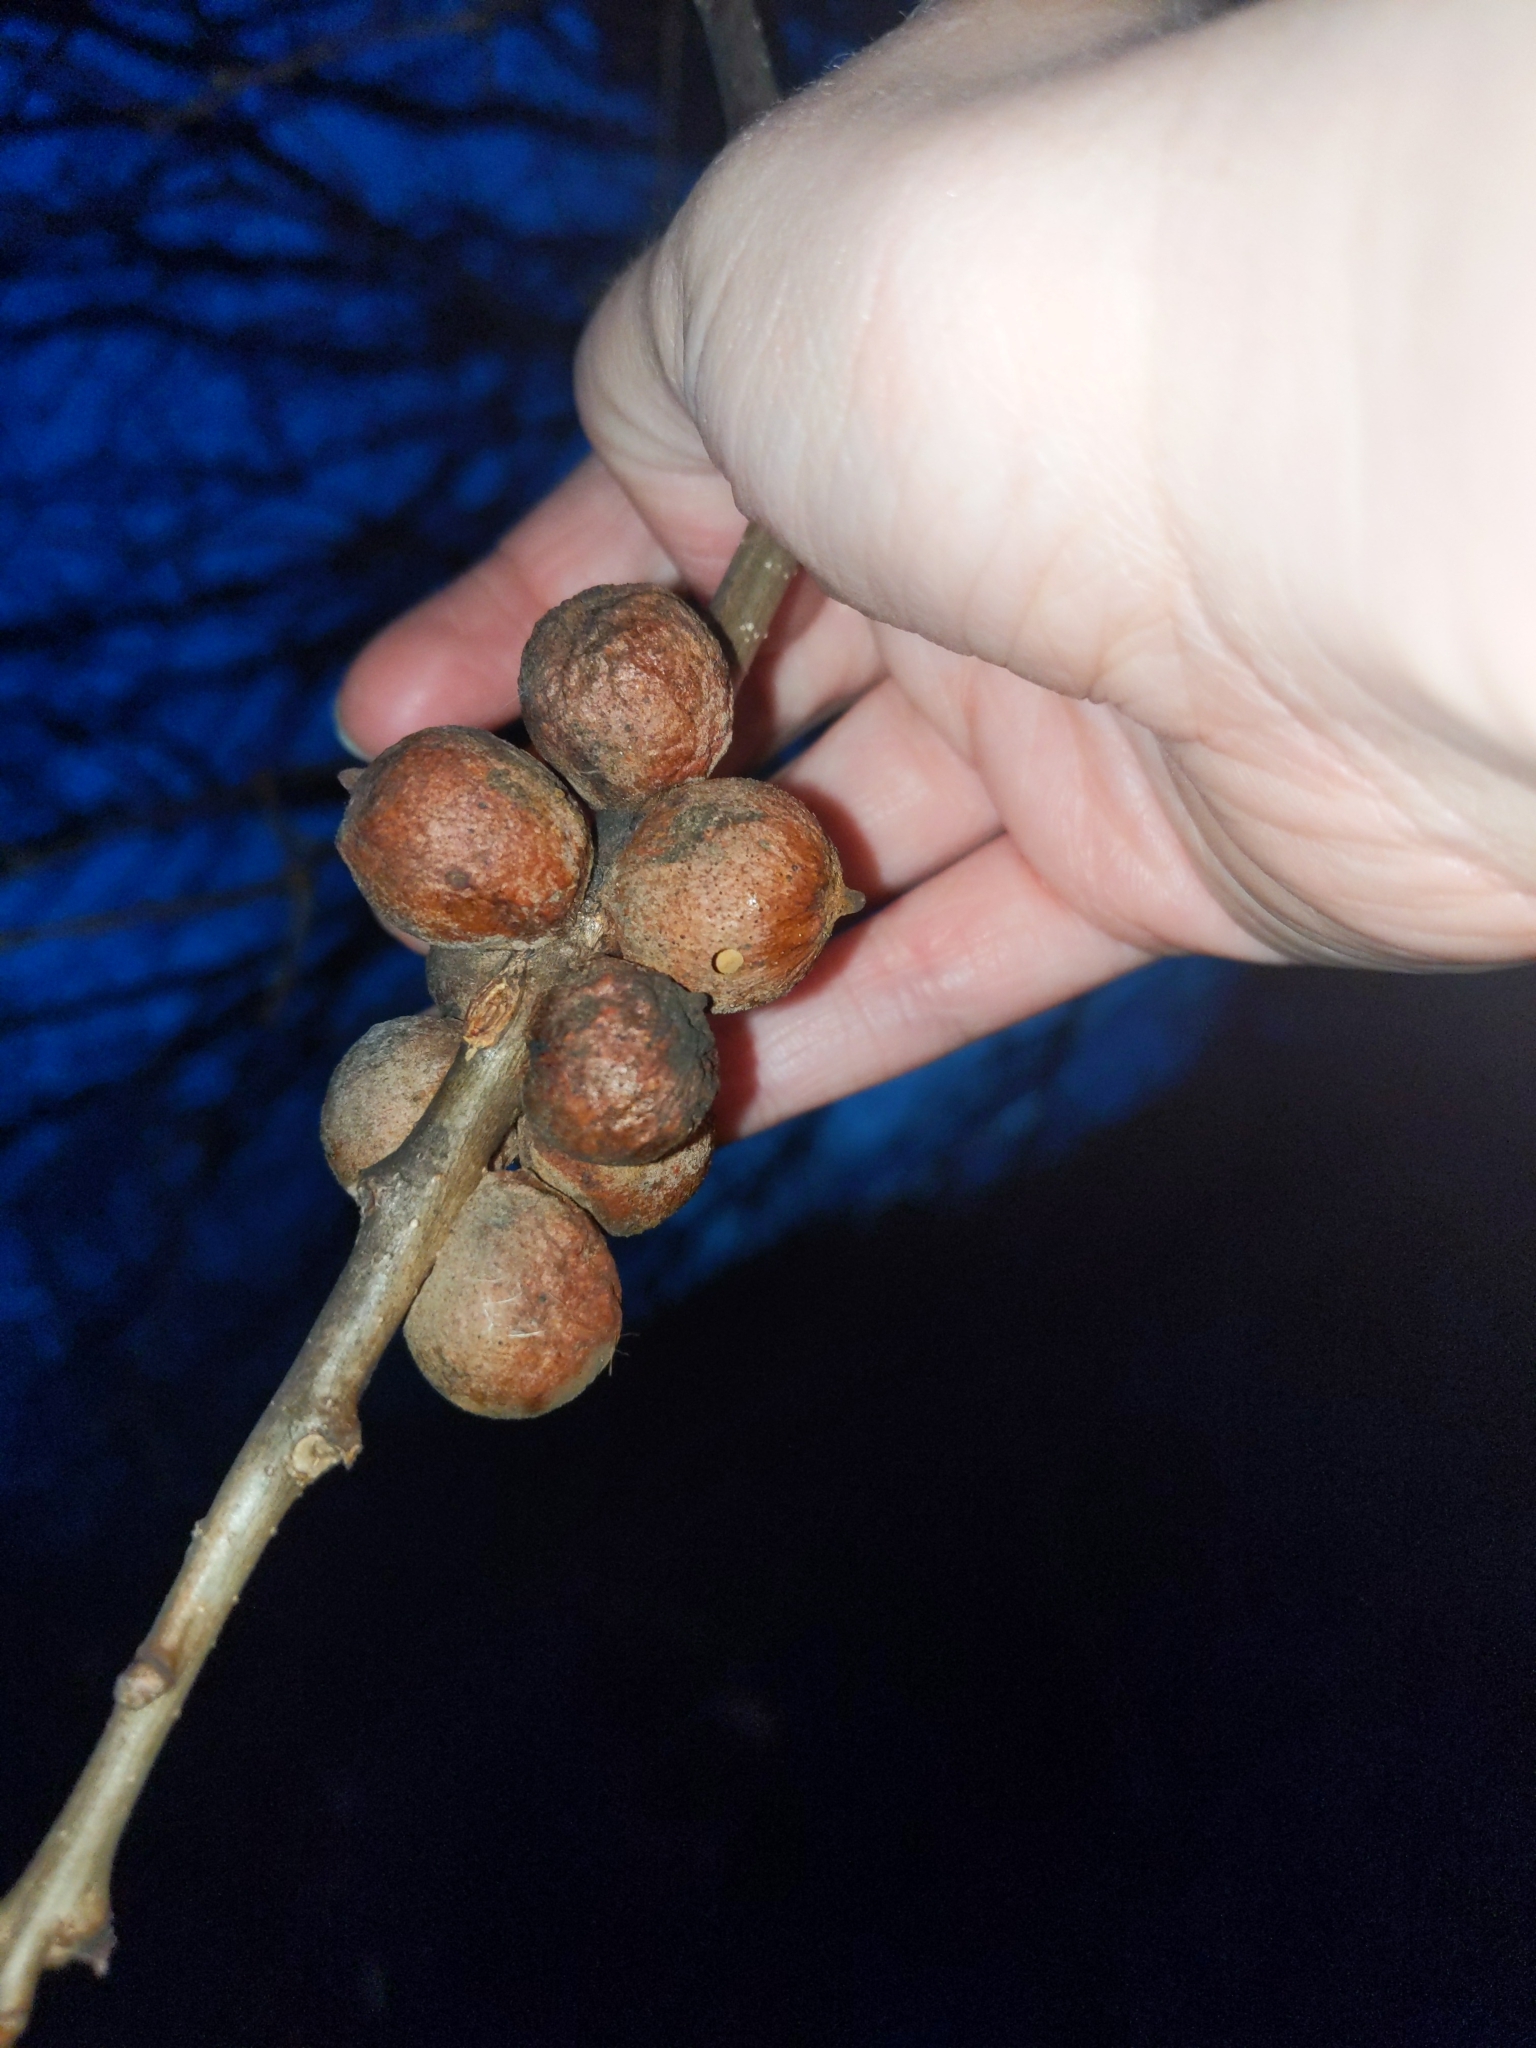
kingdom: Animalia
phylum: Arthropoda
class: Insecta
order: Hymenoptera
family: Cynipidae
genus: Disholcaspis
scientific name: Disholcaspis
